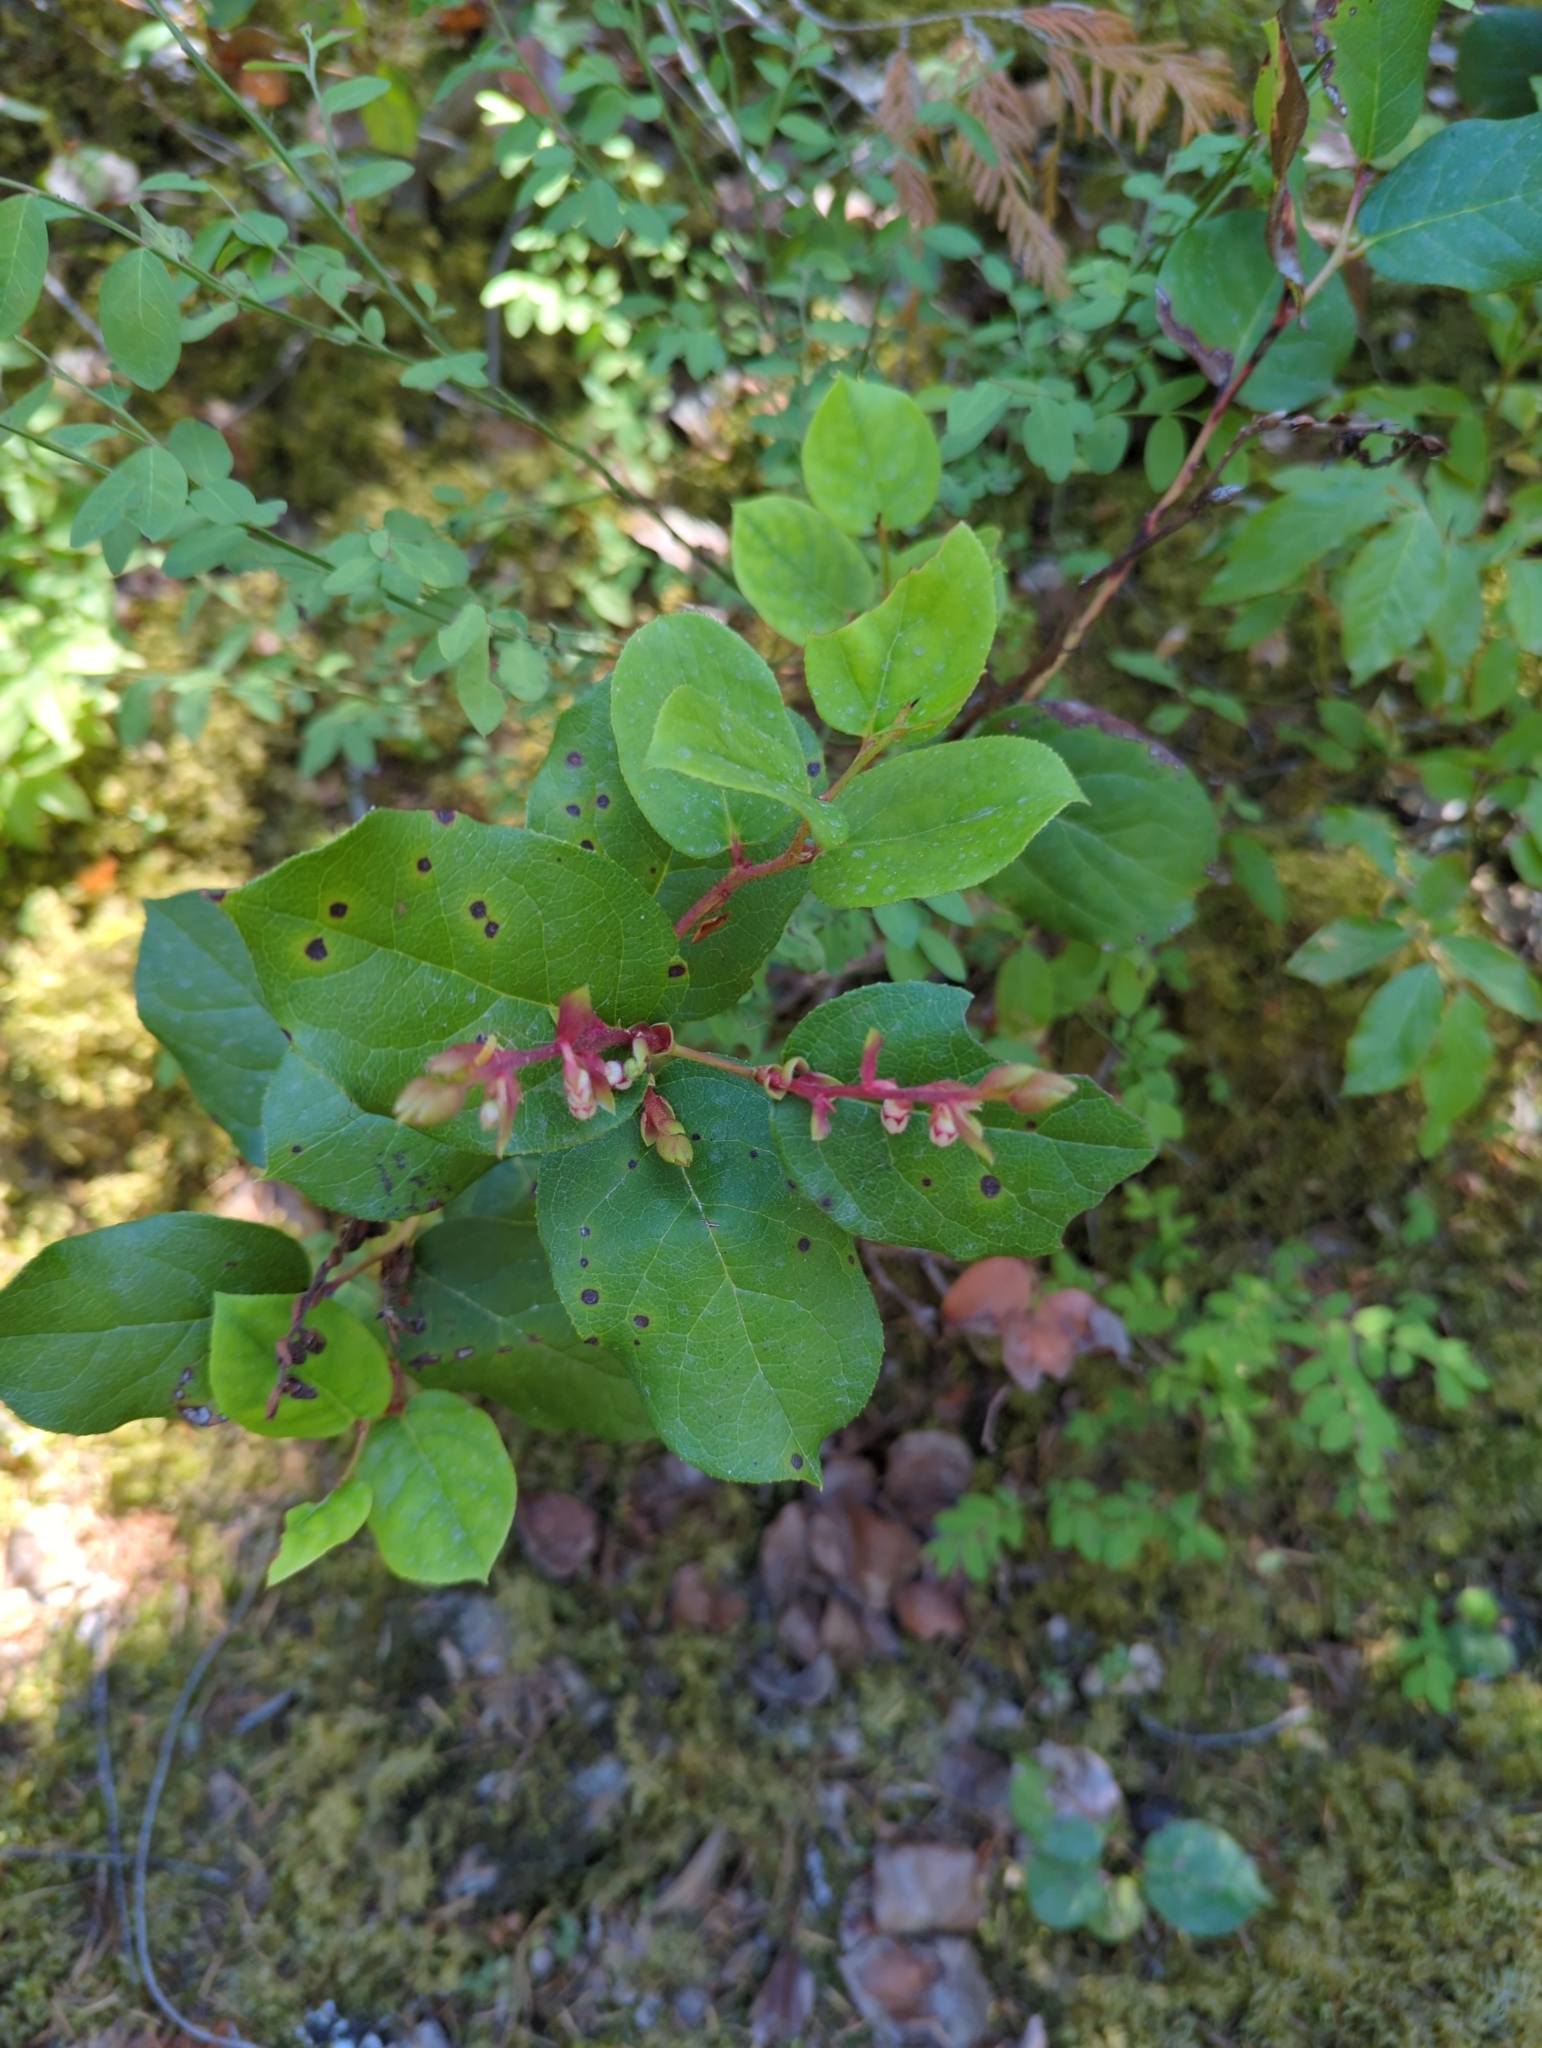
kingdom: Plantae
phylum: Tracheophyta
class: Magnoliopsida
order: Ericales
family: Ericaceae
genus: Gaultheria
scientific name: Gaultheria shallon
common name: Shallon
